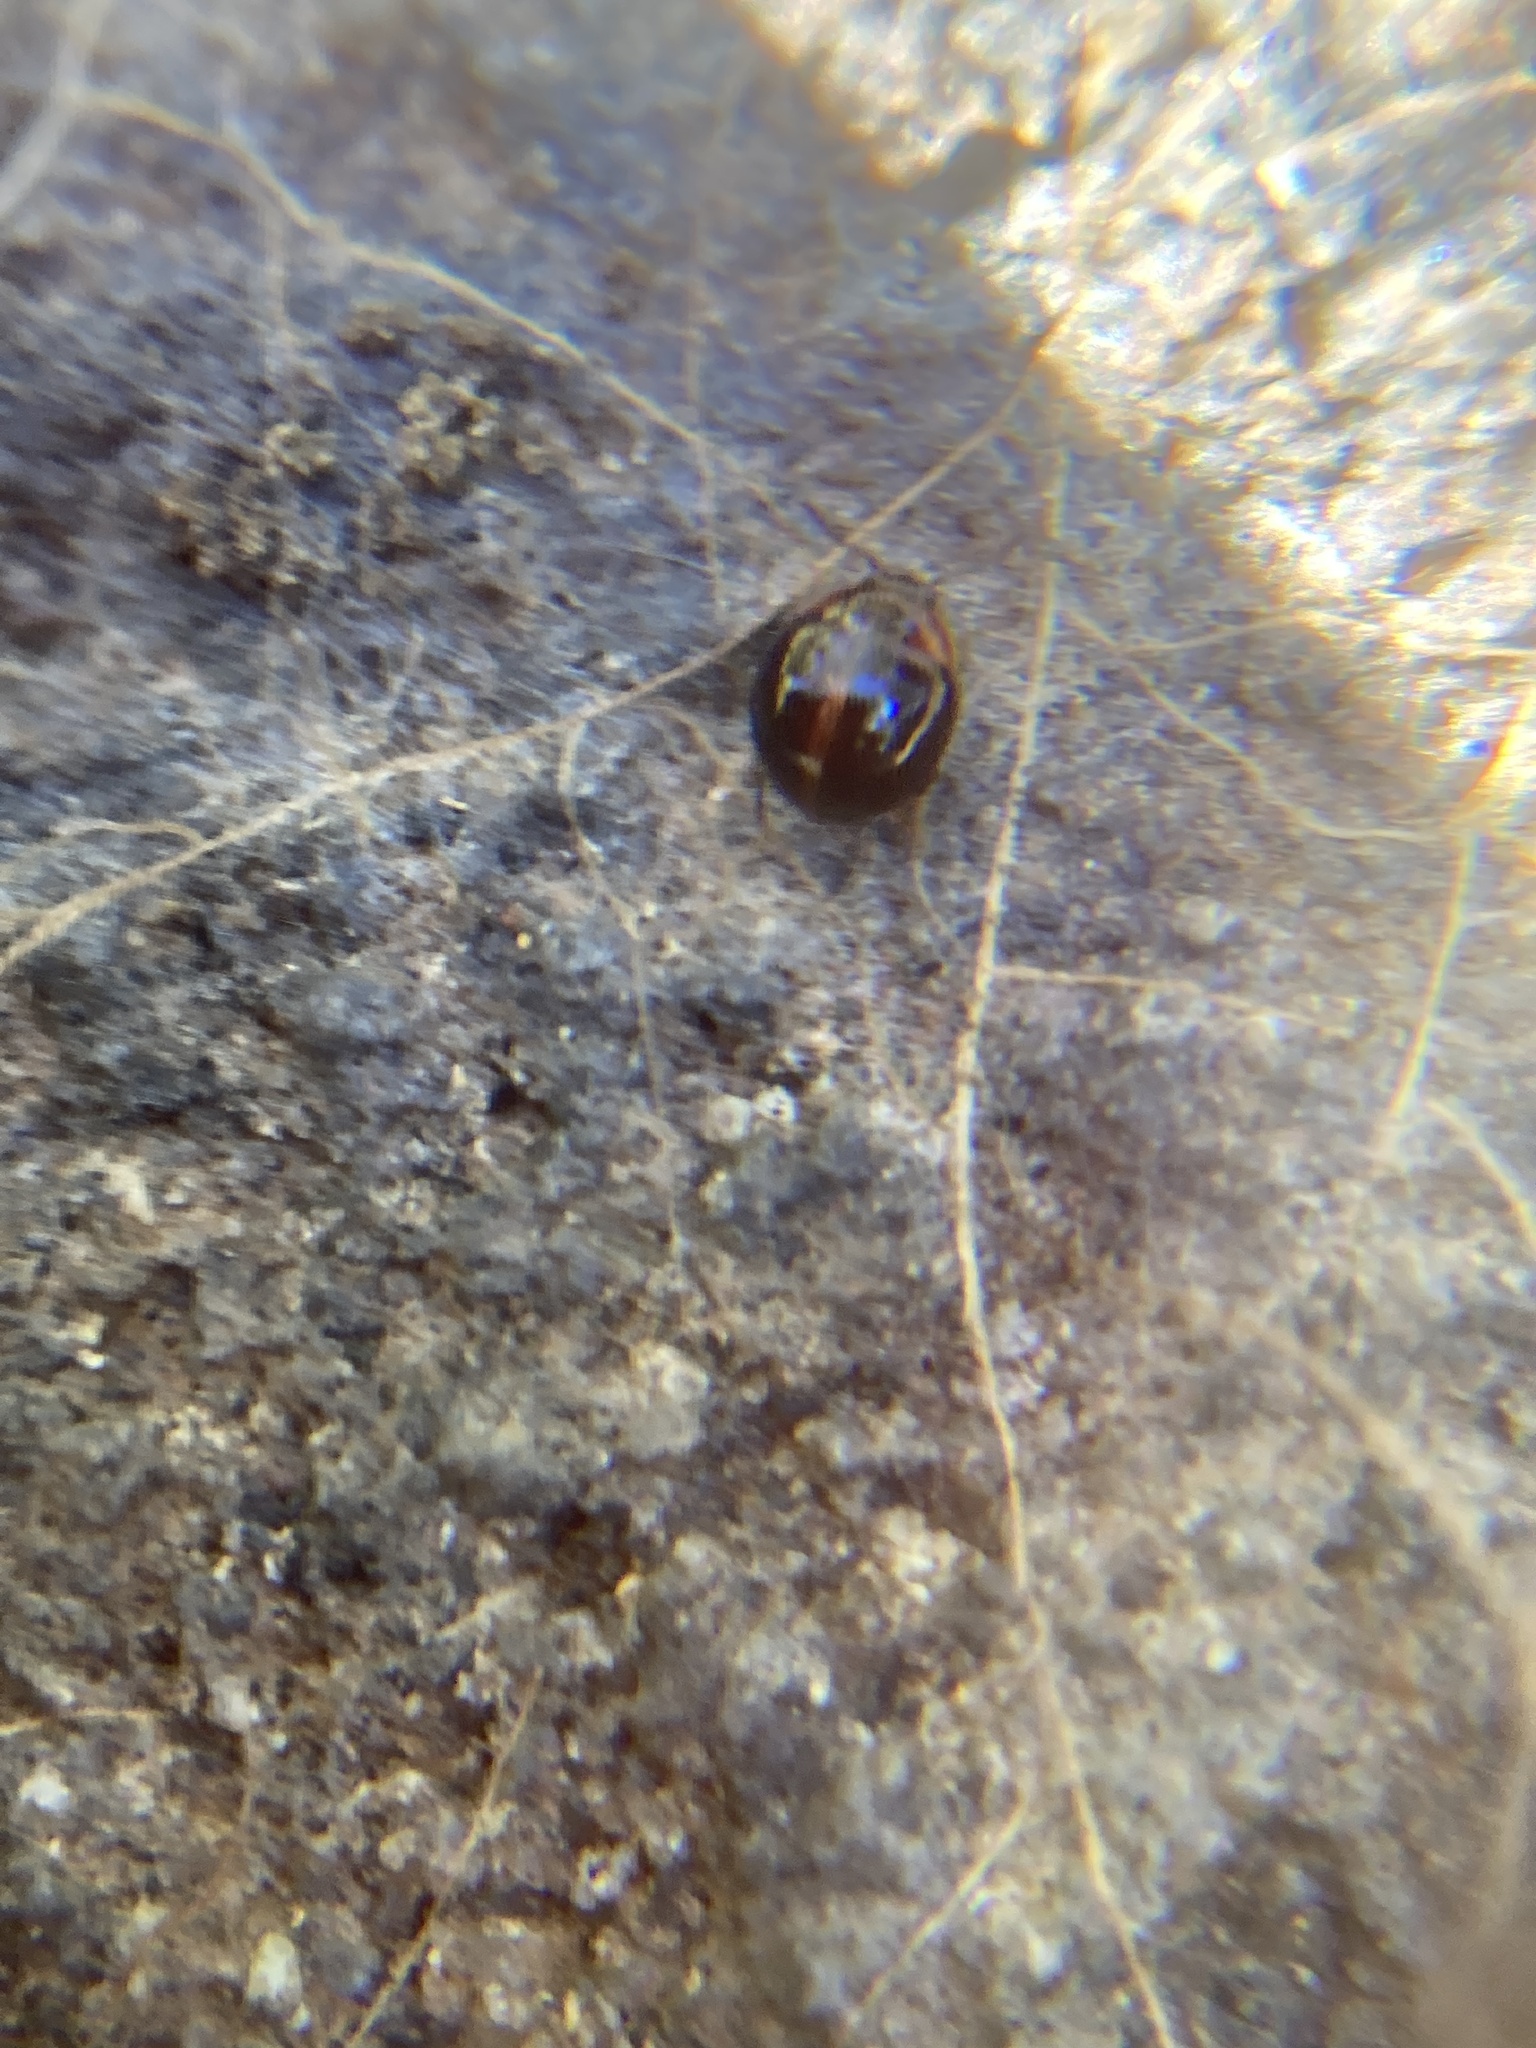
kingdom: Animalia
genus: Leiochrodes
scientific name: Leiochrodes
